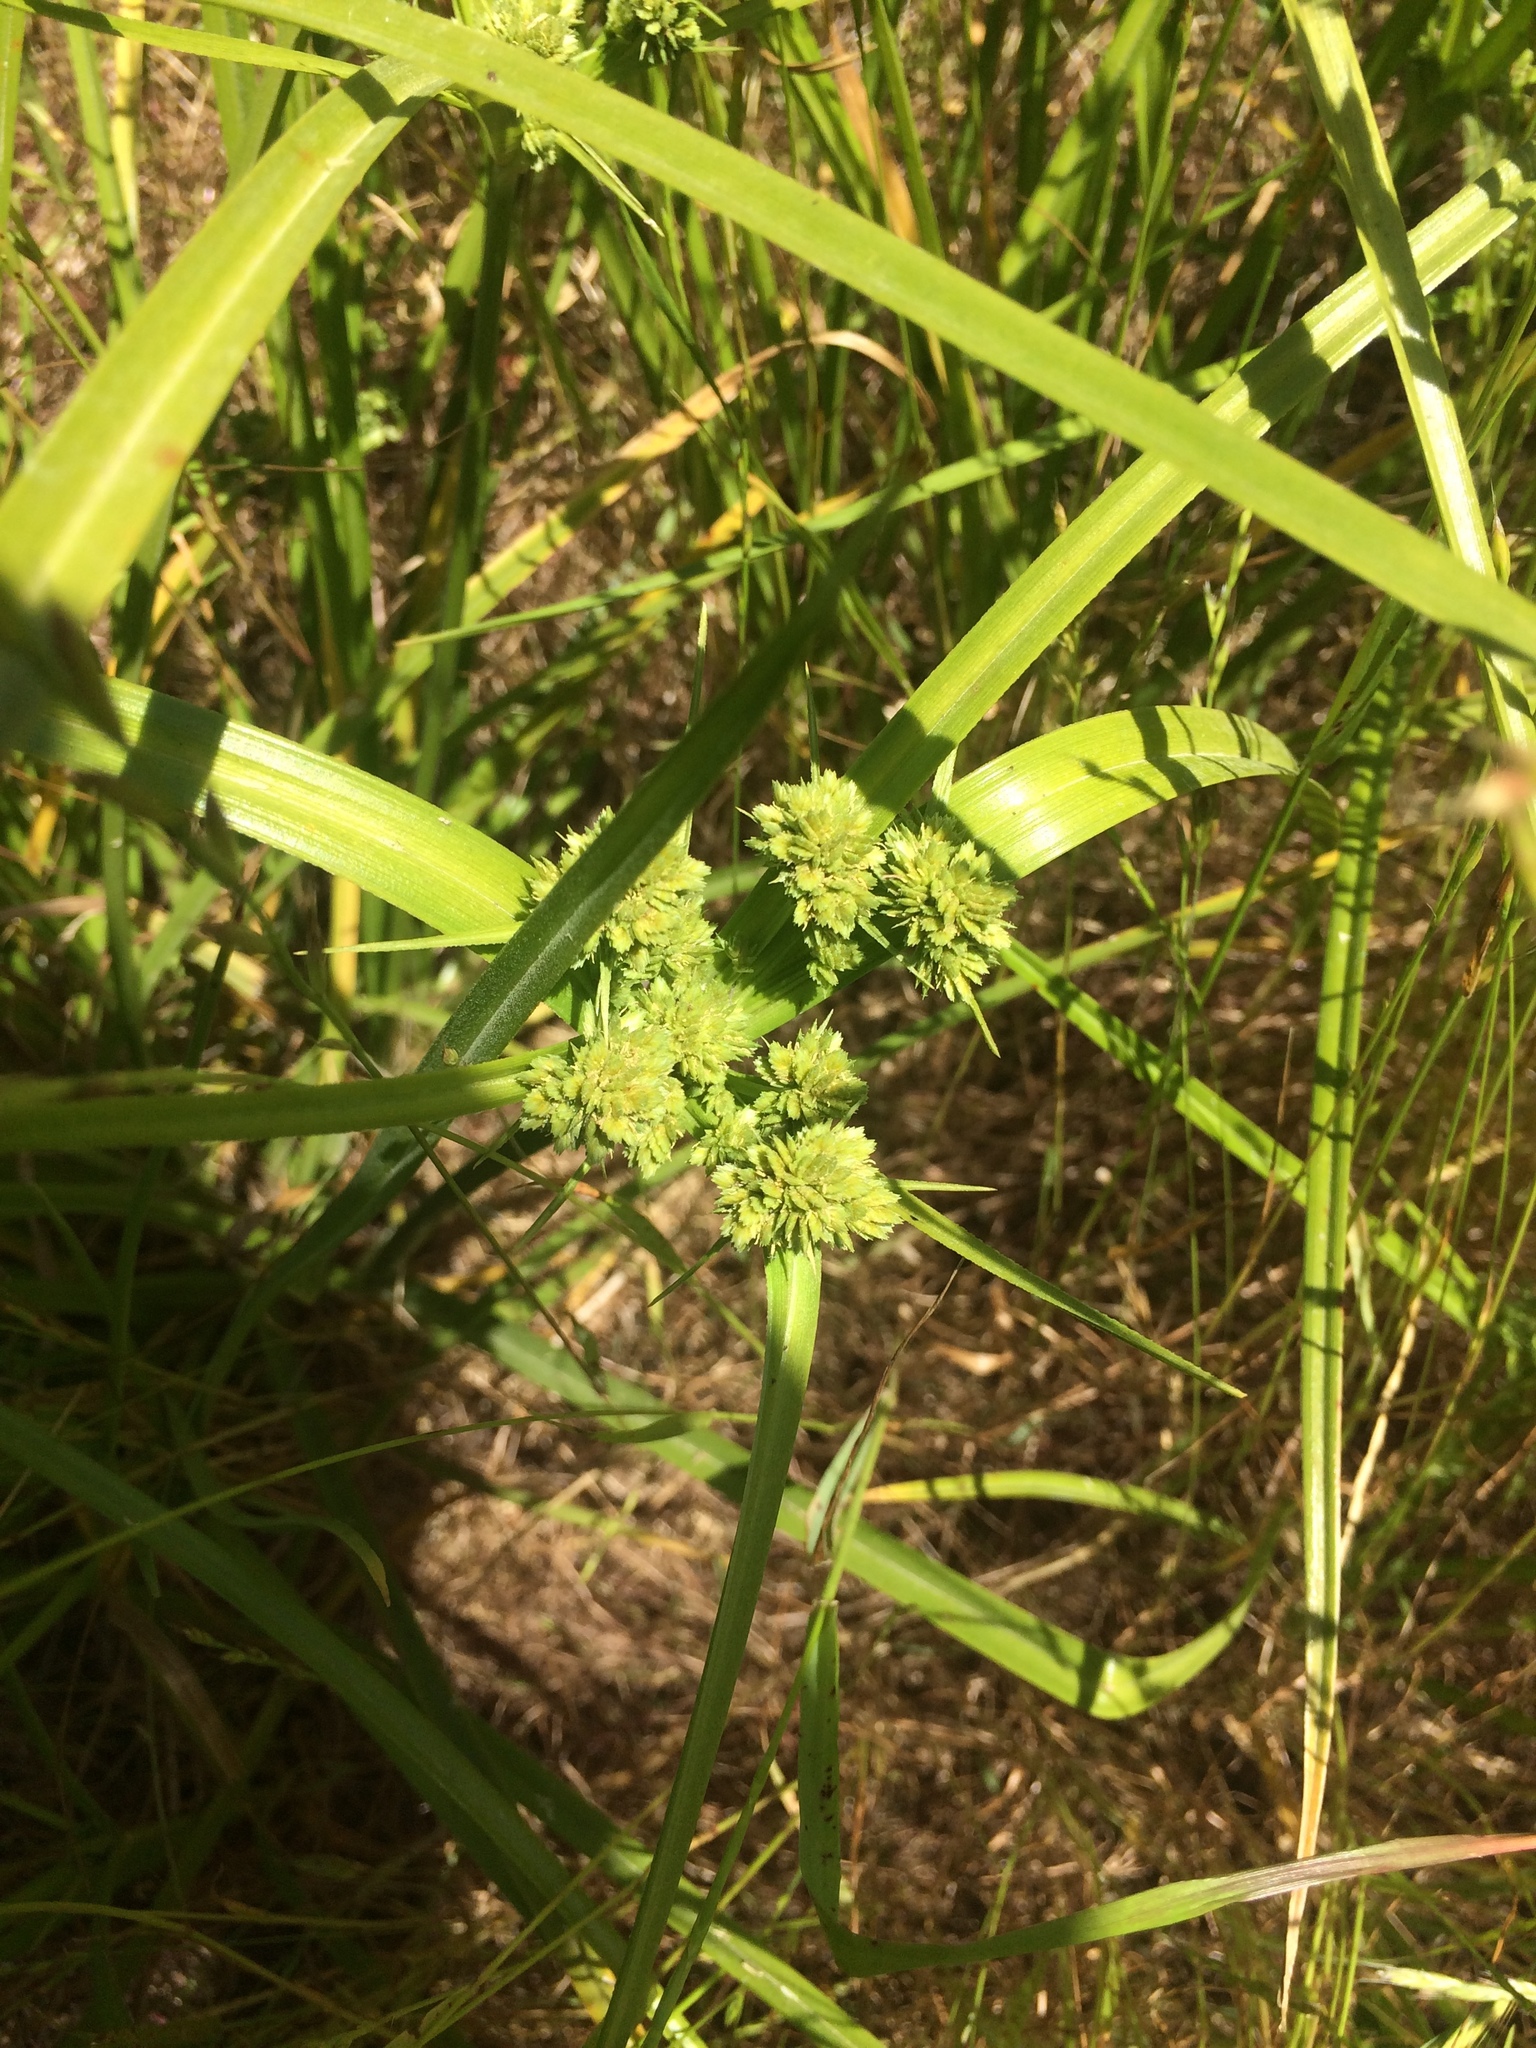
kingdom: Plantae
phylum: Tracheophyta
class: Liliopsida
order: Poales
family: Cyperaceae
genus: Cyperus
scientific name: Cyperus eragrostis
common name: Tall flatsedge
